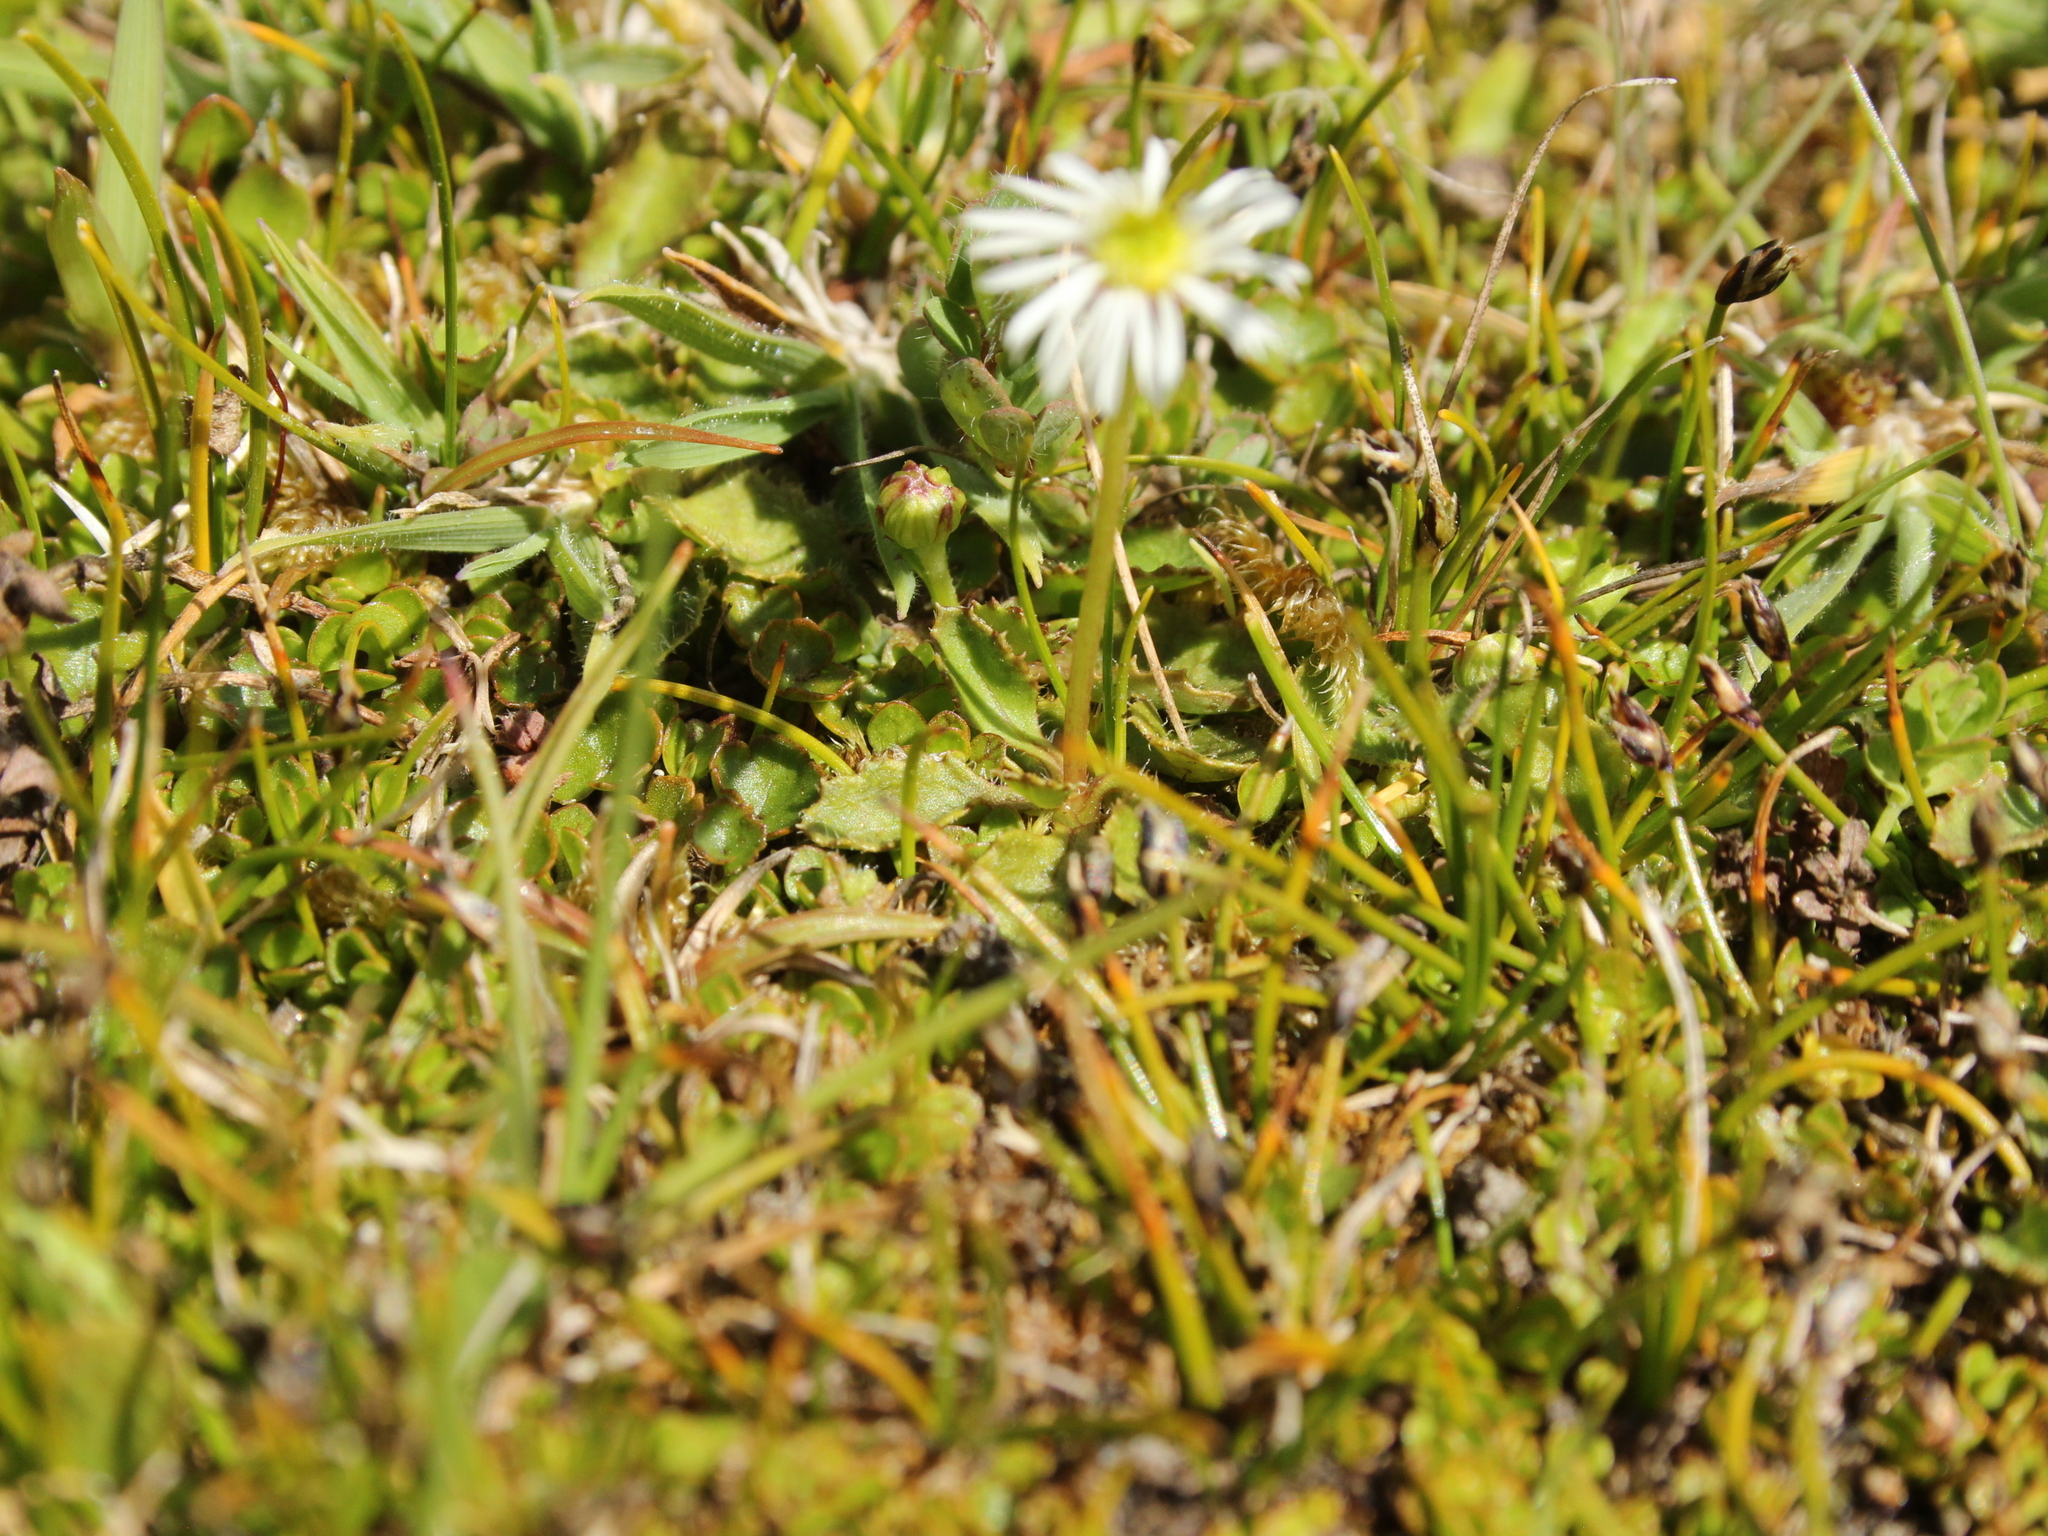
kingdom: Plantae
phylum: Tracheophyta
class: Magnoliopsida
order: Asterales
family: Asteraceae
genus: Lagenophora
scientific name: Lagenophora barkeri
